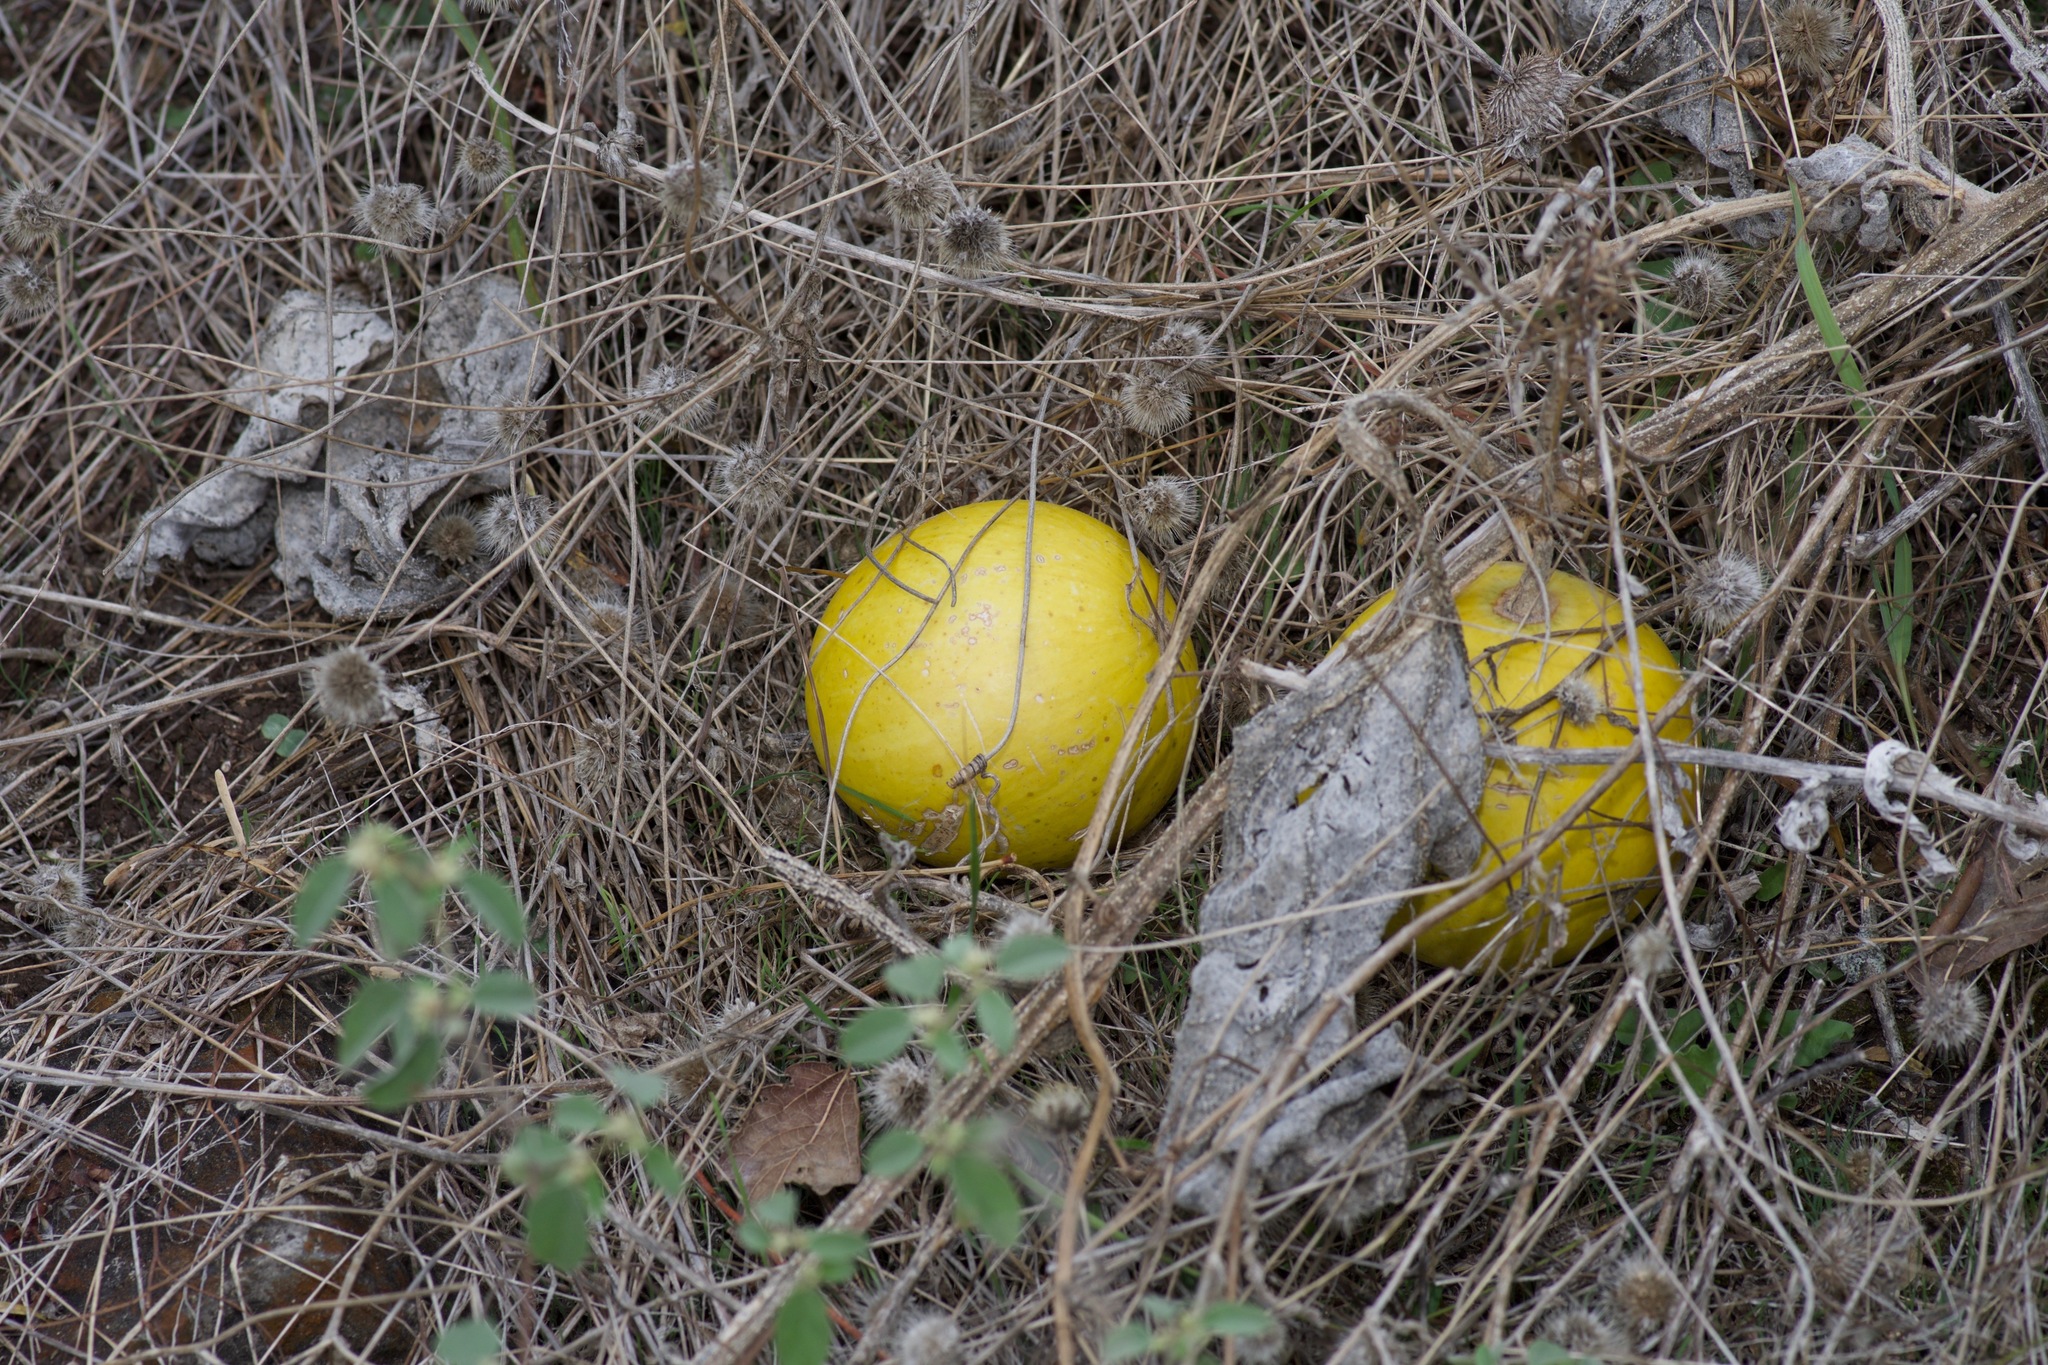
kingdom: Plantae
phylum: Tracheophyta
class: Magnoliopsida
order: Cucurbitales
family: Cucurbitaceae
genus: Cucurbita
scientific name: Cucurbita foetidissima
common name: Buffalo gourd
